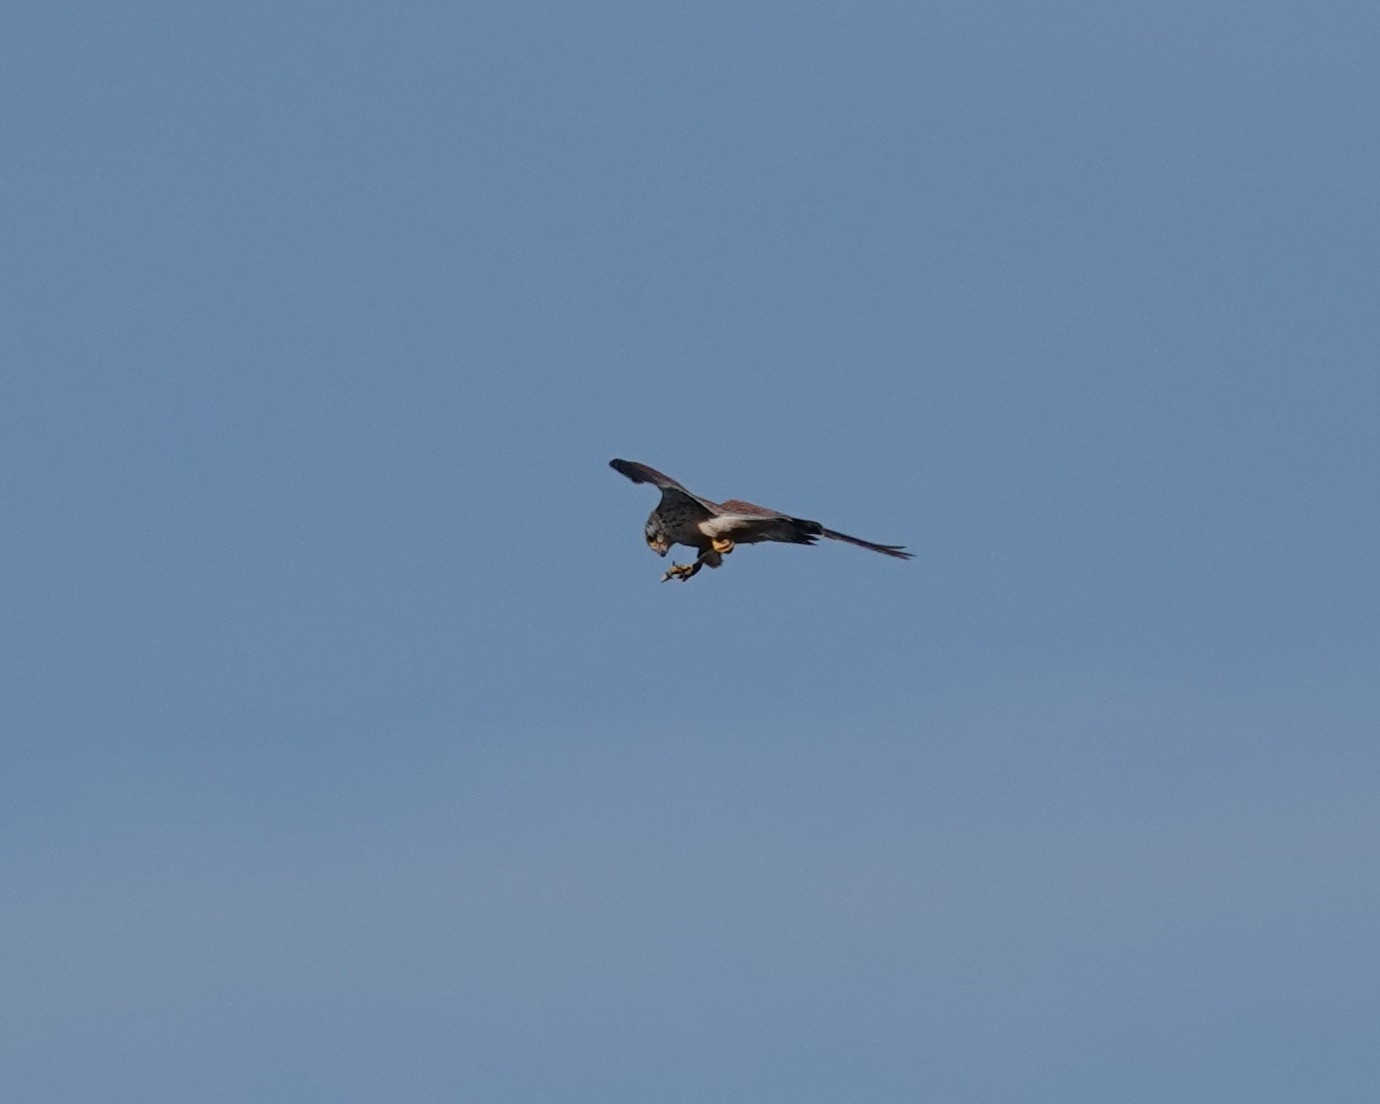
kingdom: Animalia
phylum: Chordata
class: Aves
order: Falconiformes
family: Falconidae
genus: Falco
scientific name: Falco tinnunculus
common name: Common kestrel
